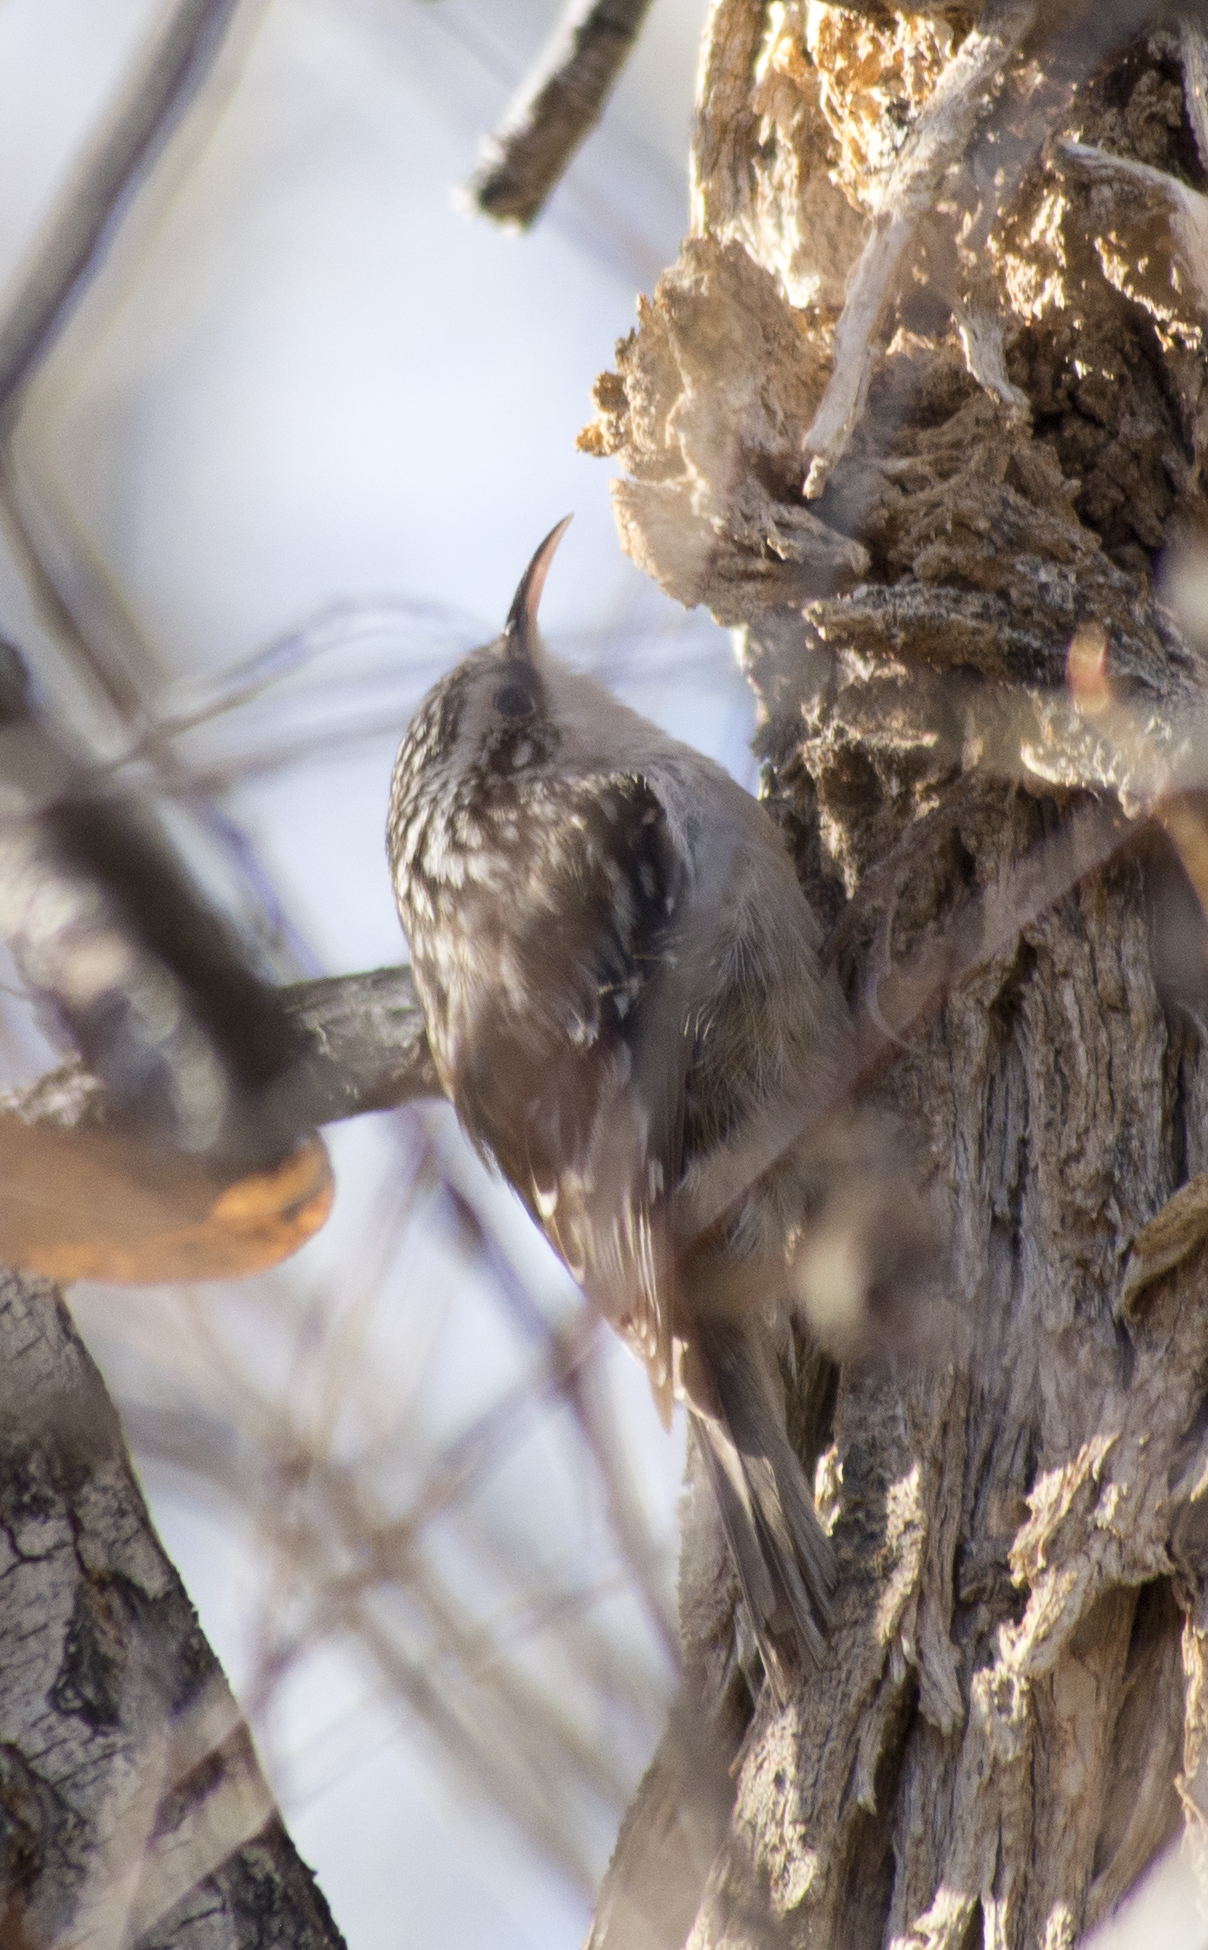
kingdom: Animalia
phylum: Chordata
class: Aves
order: Passeriformes
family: Certhiidae
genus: Certhia
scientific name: Certhia americana
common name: Brown creeper
